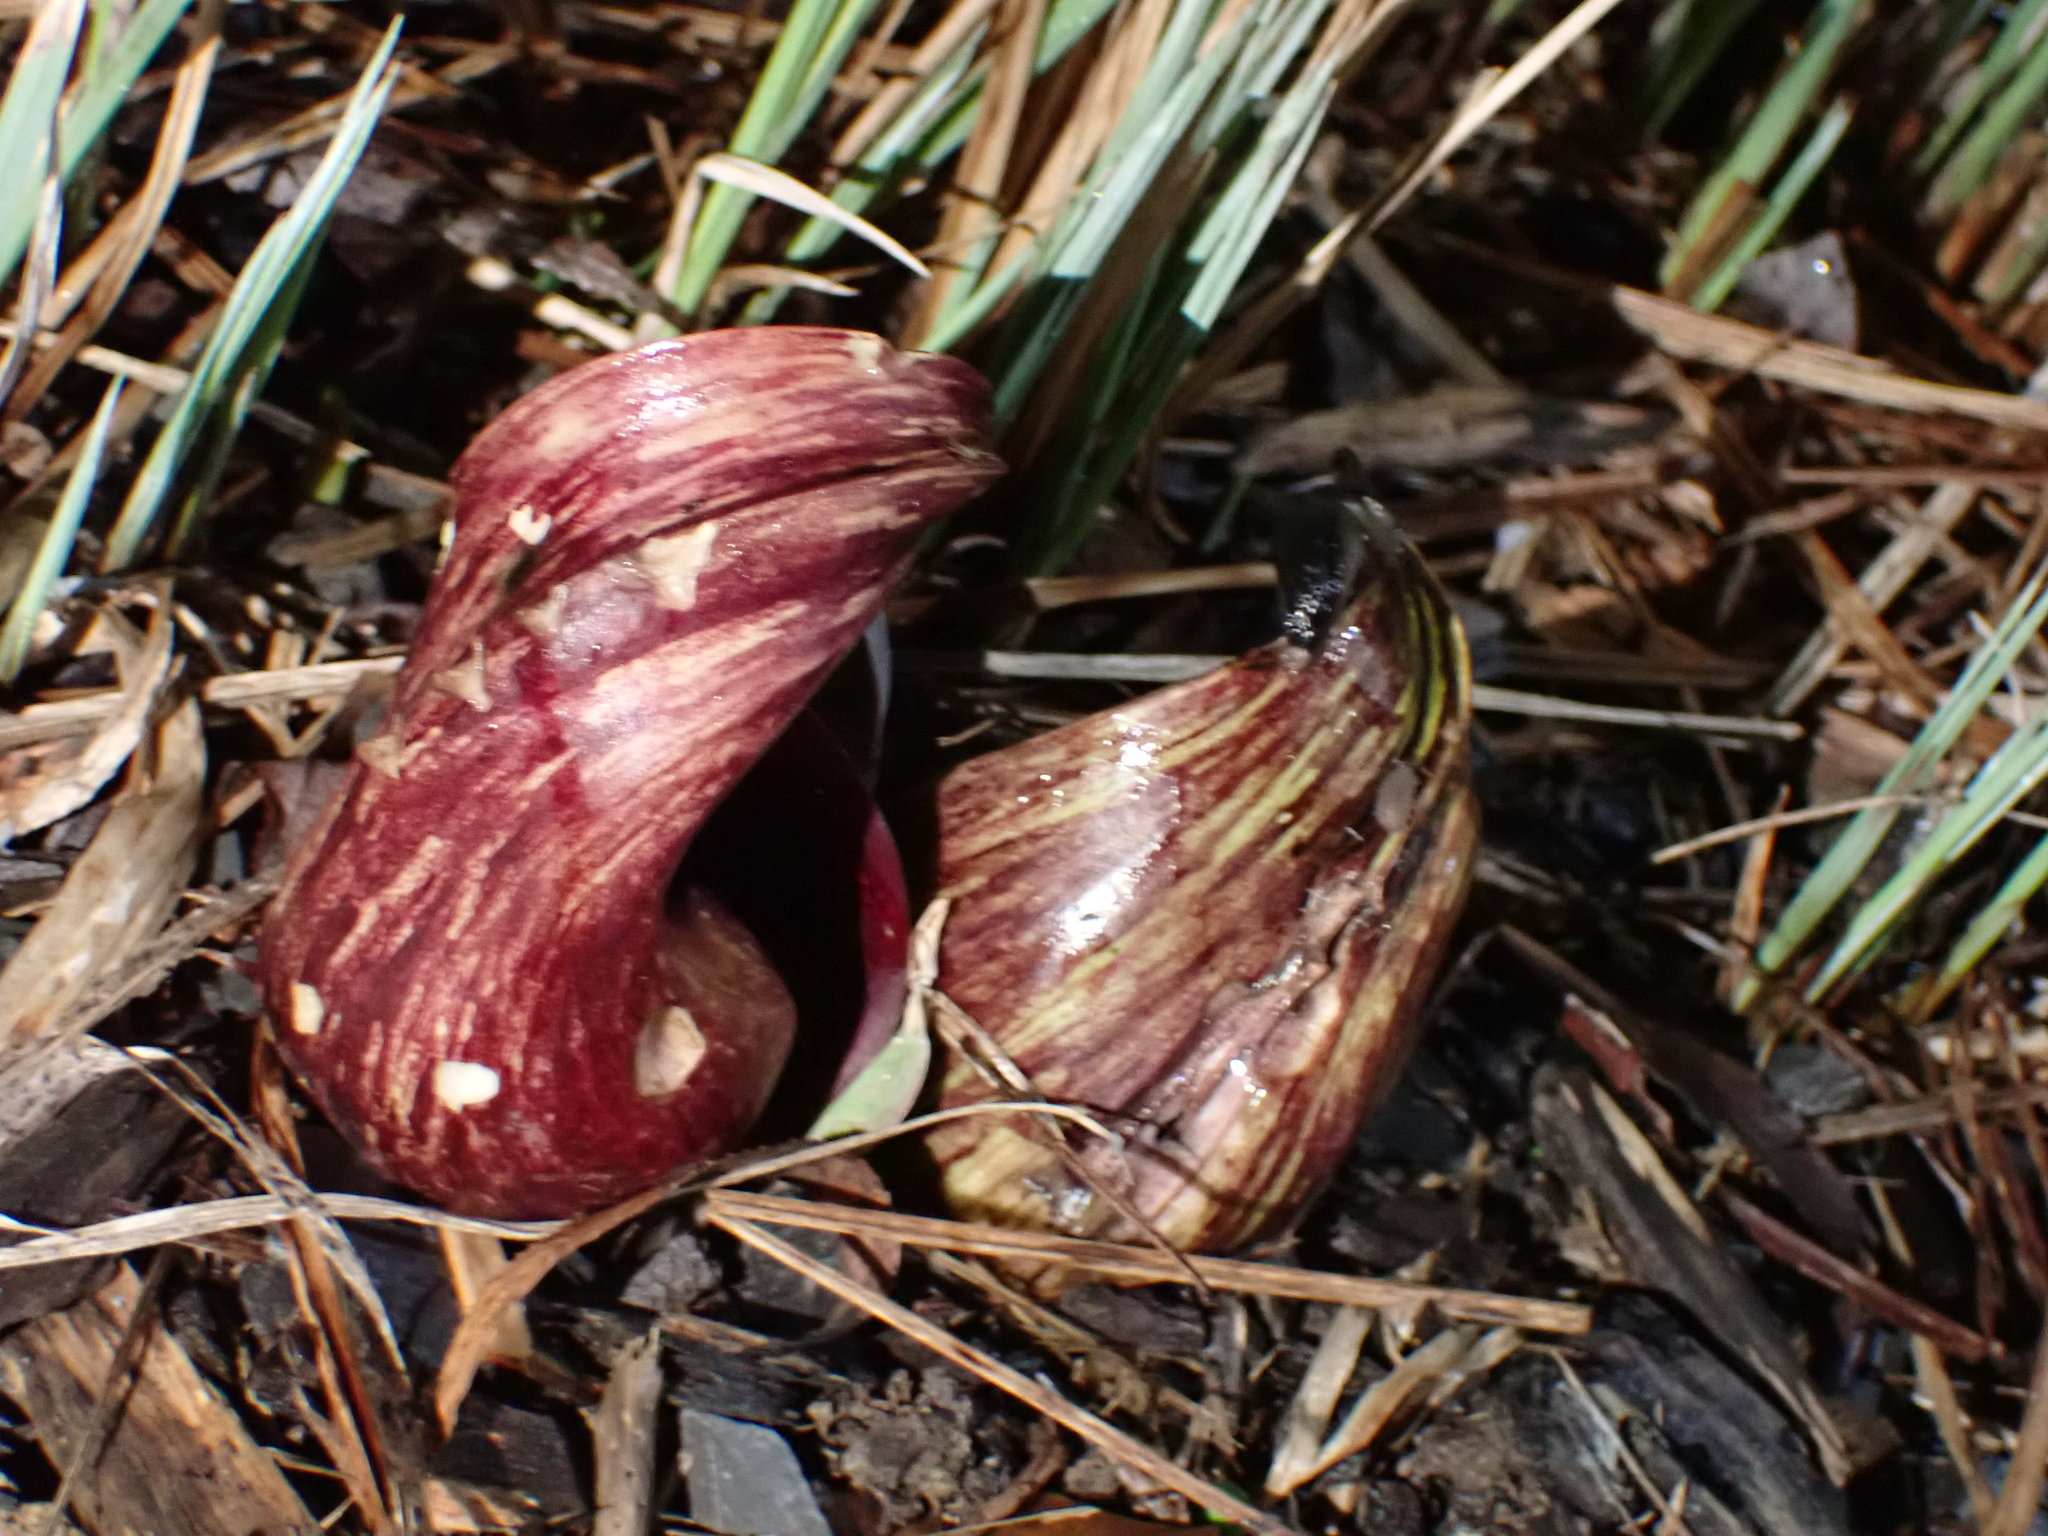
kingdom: Plantae
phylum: Tracheophyta
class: Liliopsida
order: Alismatales
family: Araceae
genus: Symplocarpus
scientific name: Symplocarpus foetidus
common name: Eastern skunk cabbage
